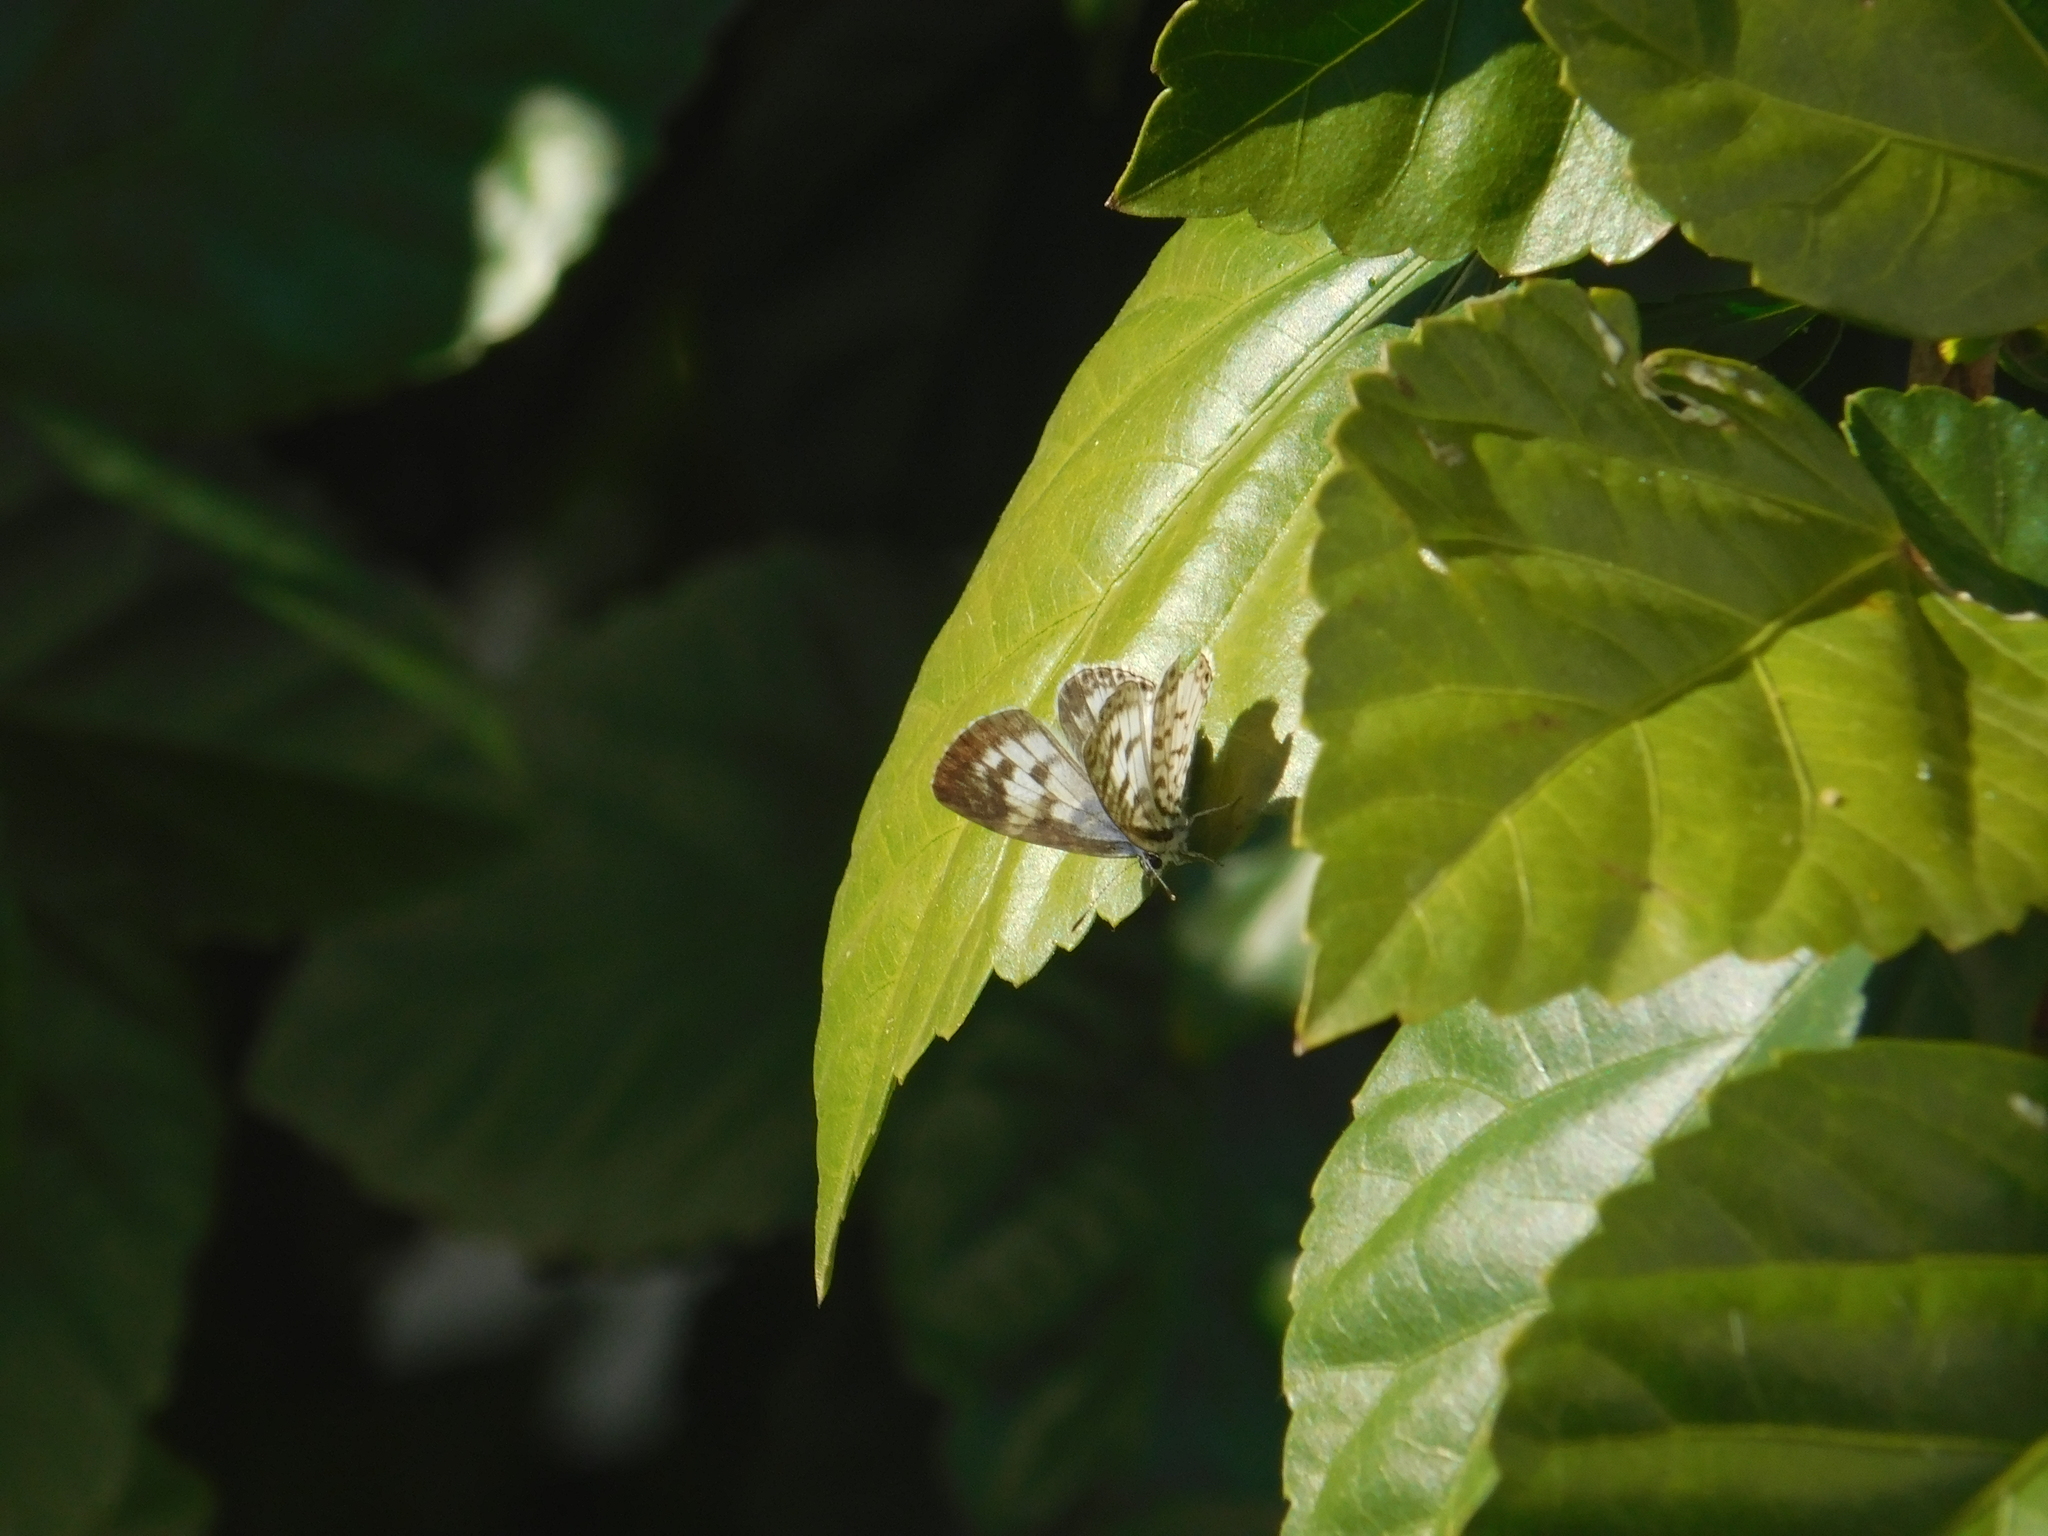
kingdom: Animalia
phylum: Arthropoda
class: Insecta
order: Lepidoptera
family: Lycaenidae
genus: Leptotes
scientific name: Leptotes cassius
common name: Cassius blue
